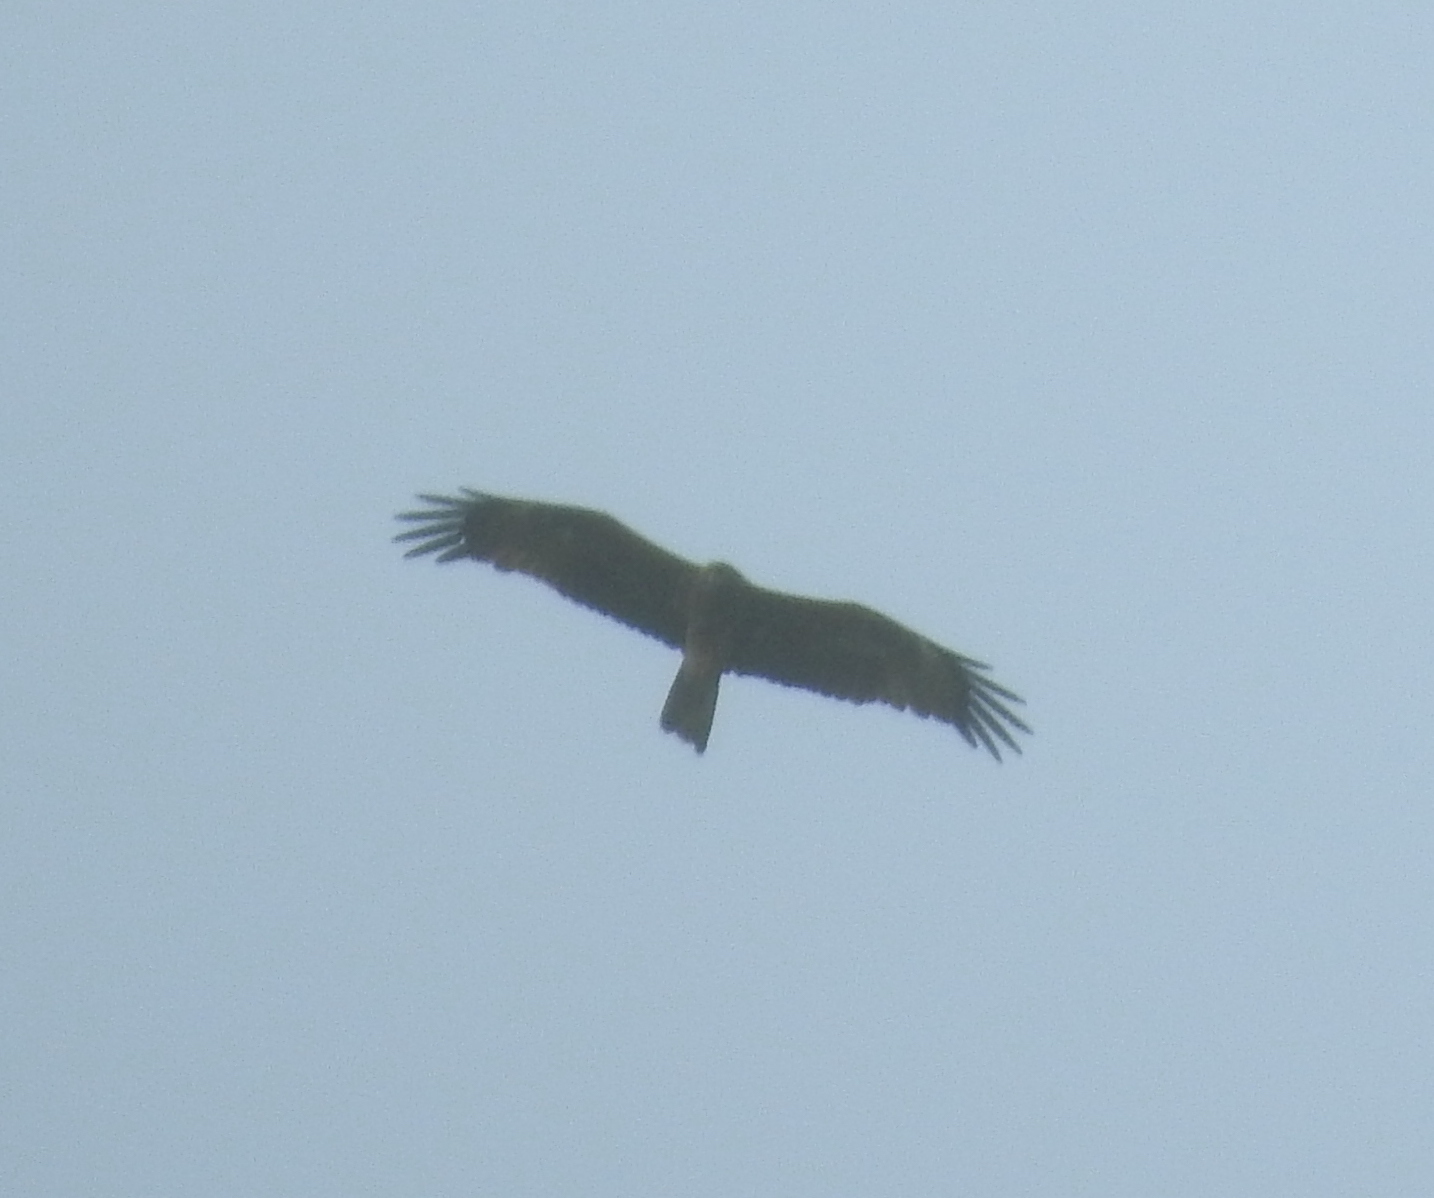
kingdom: Animalia
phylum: Chordata
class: Aves
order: Accipitriformes
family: Accipitridae
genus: Milvus
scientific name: Milvus migrans
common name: Black kite
